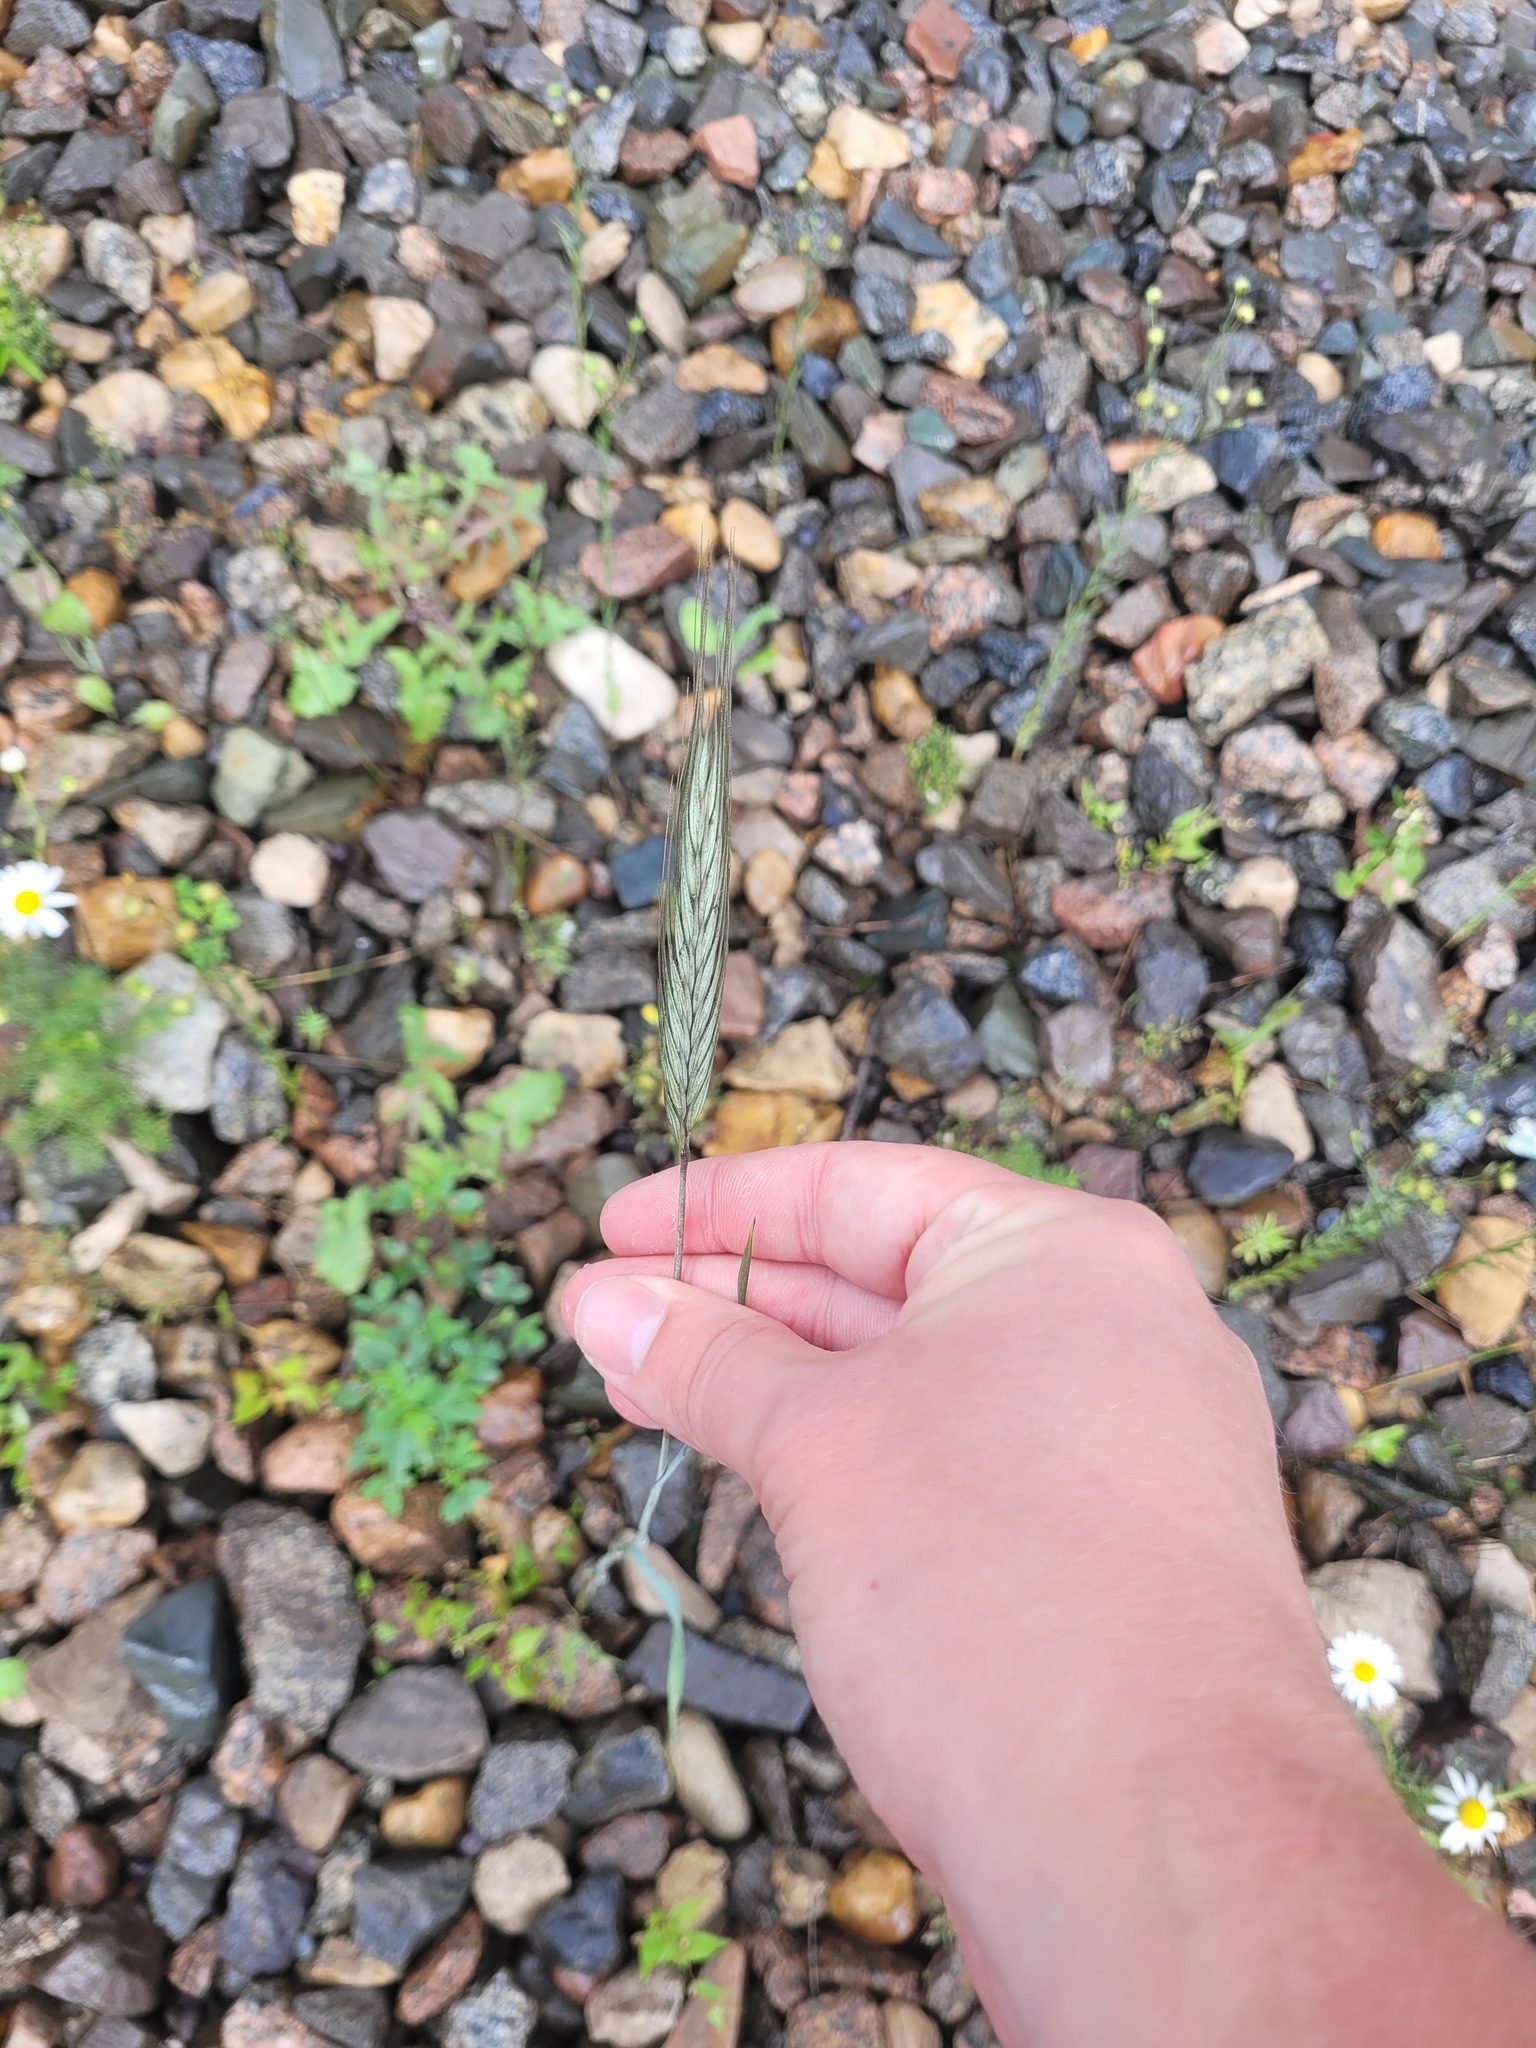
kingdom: Plantae
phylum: Tracheophyta
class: Liliopsida
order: Poales
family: Poaceae
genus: Secale
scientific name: Secale cereale
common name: Rye
